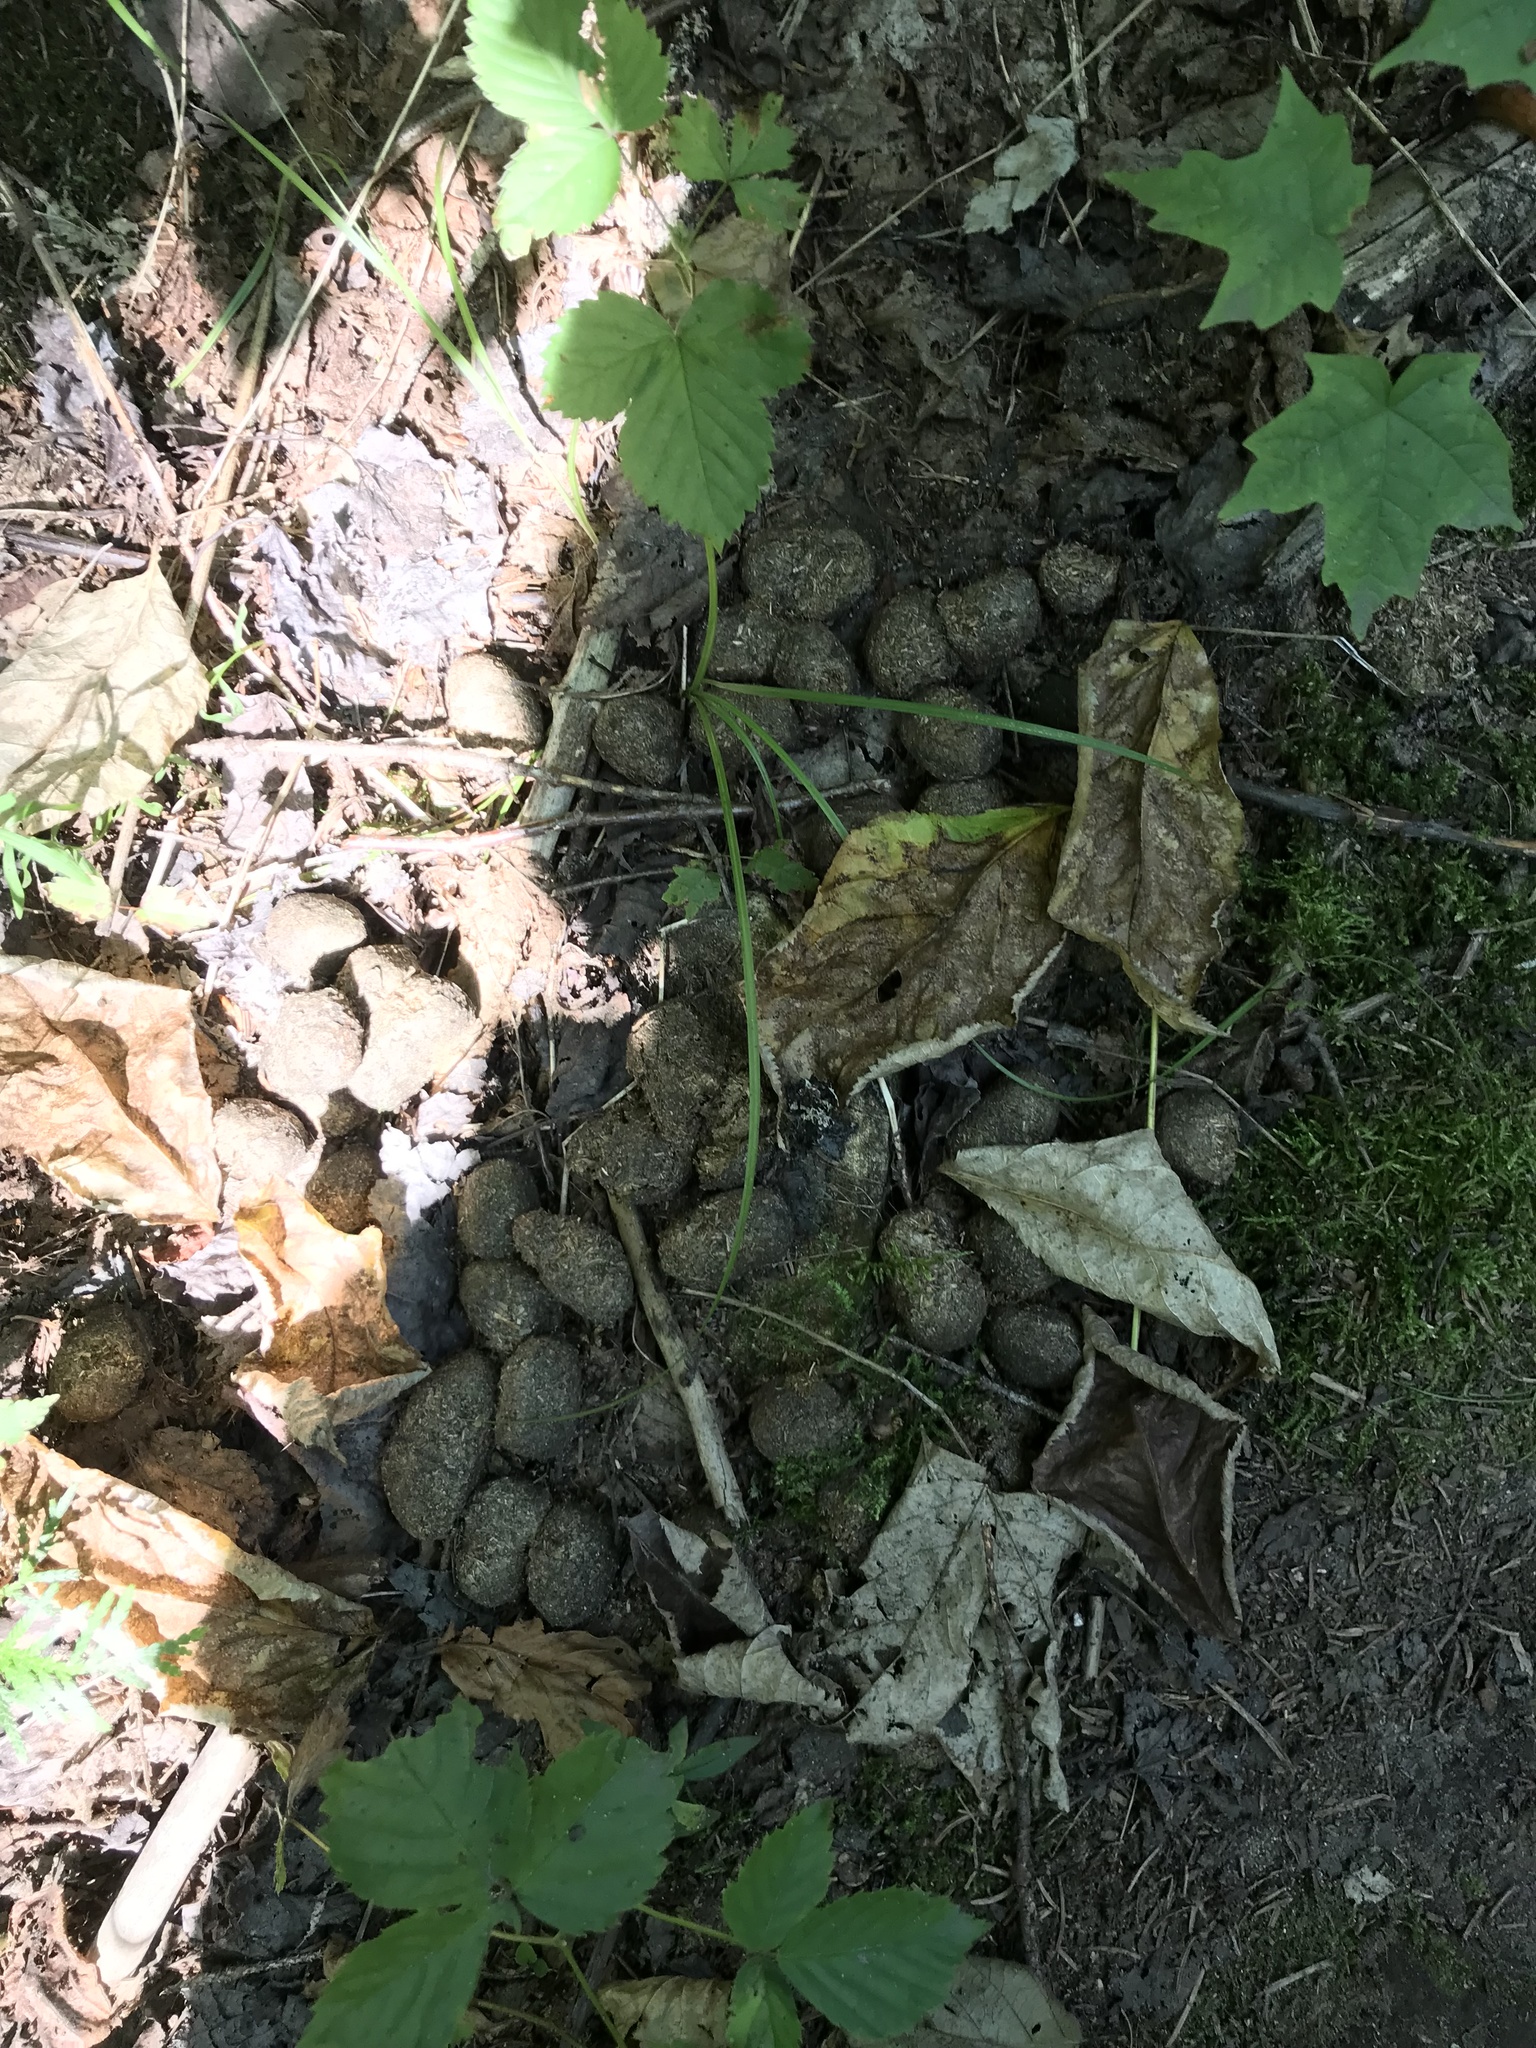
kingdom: Animalia
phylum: Chordata
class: Mammalia
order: Artiodactyla
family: Cervidae
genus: Alces
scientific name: Alces alces
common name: Moose
